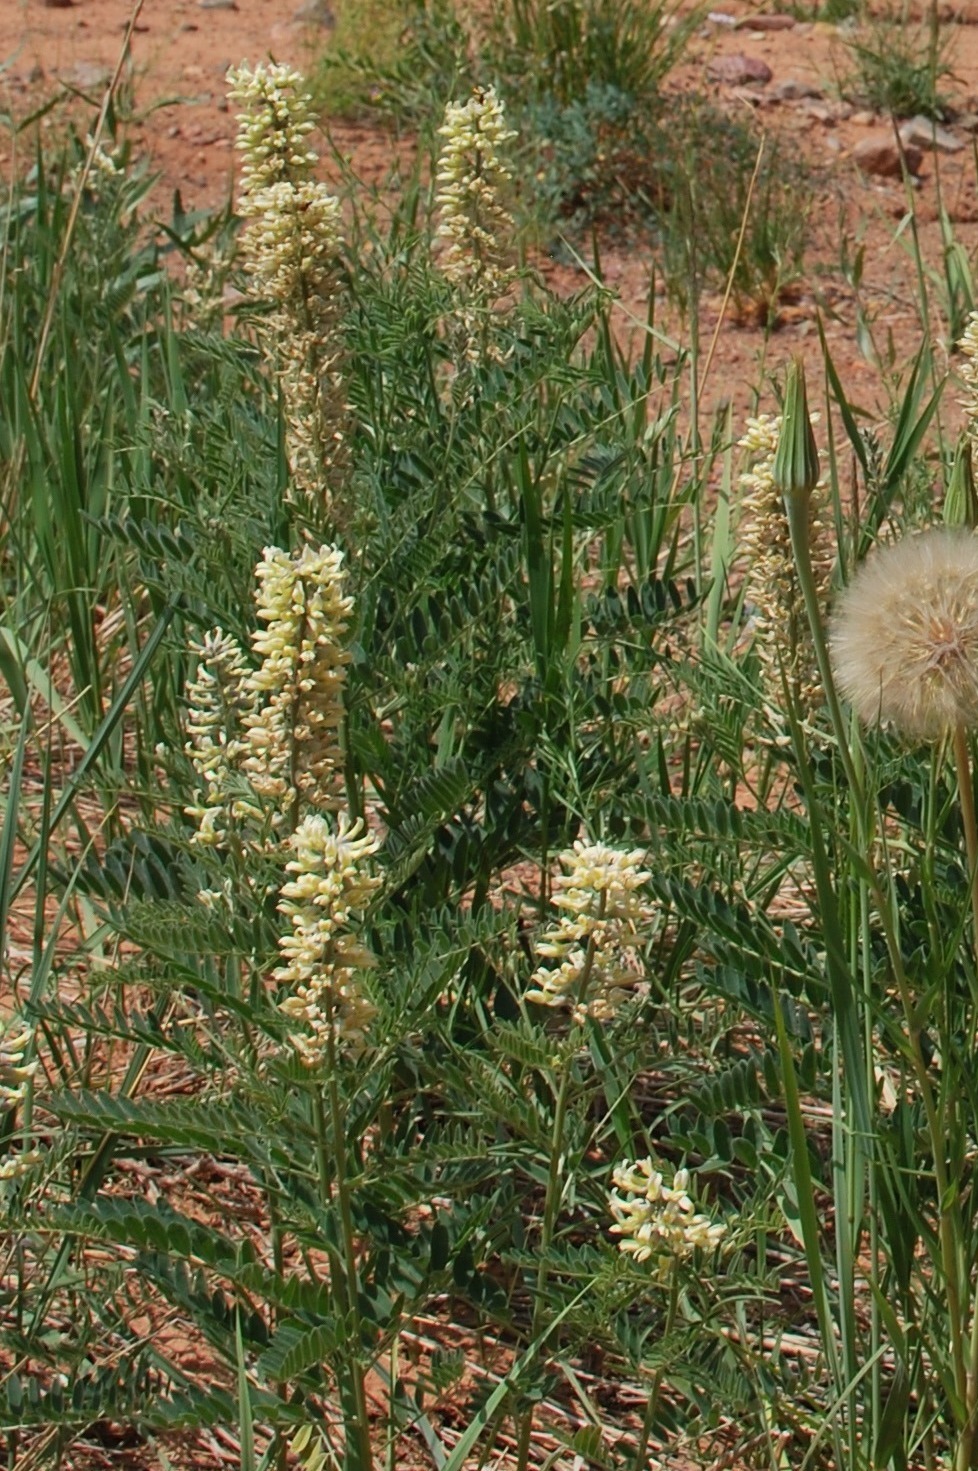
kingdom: Plantae
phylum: Tracheophyta
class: Magnoliopsida
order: Fabales
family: Fabaceae
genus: Sophora
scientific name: Sophora alopecuroides
